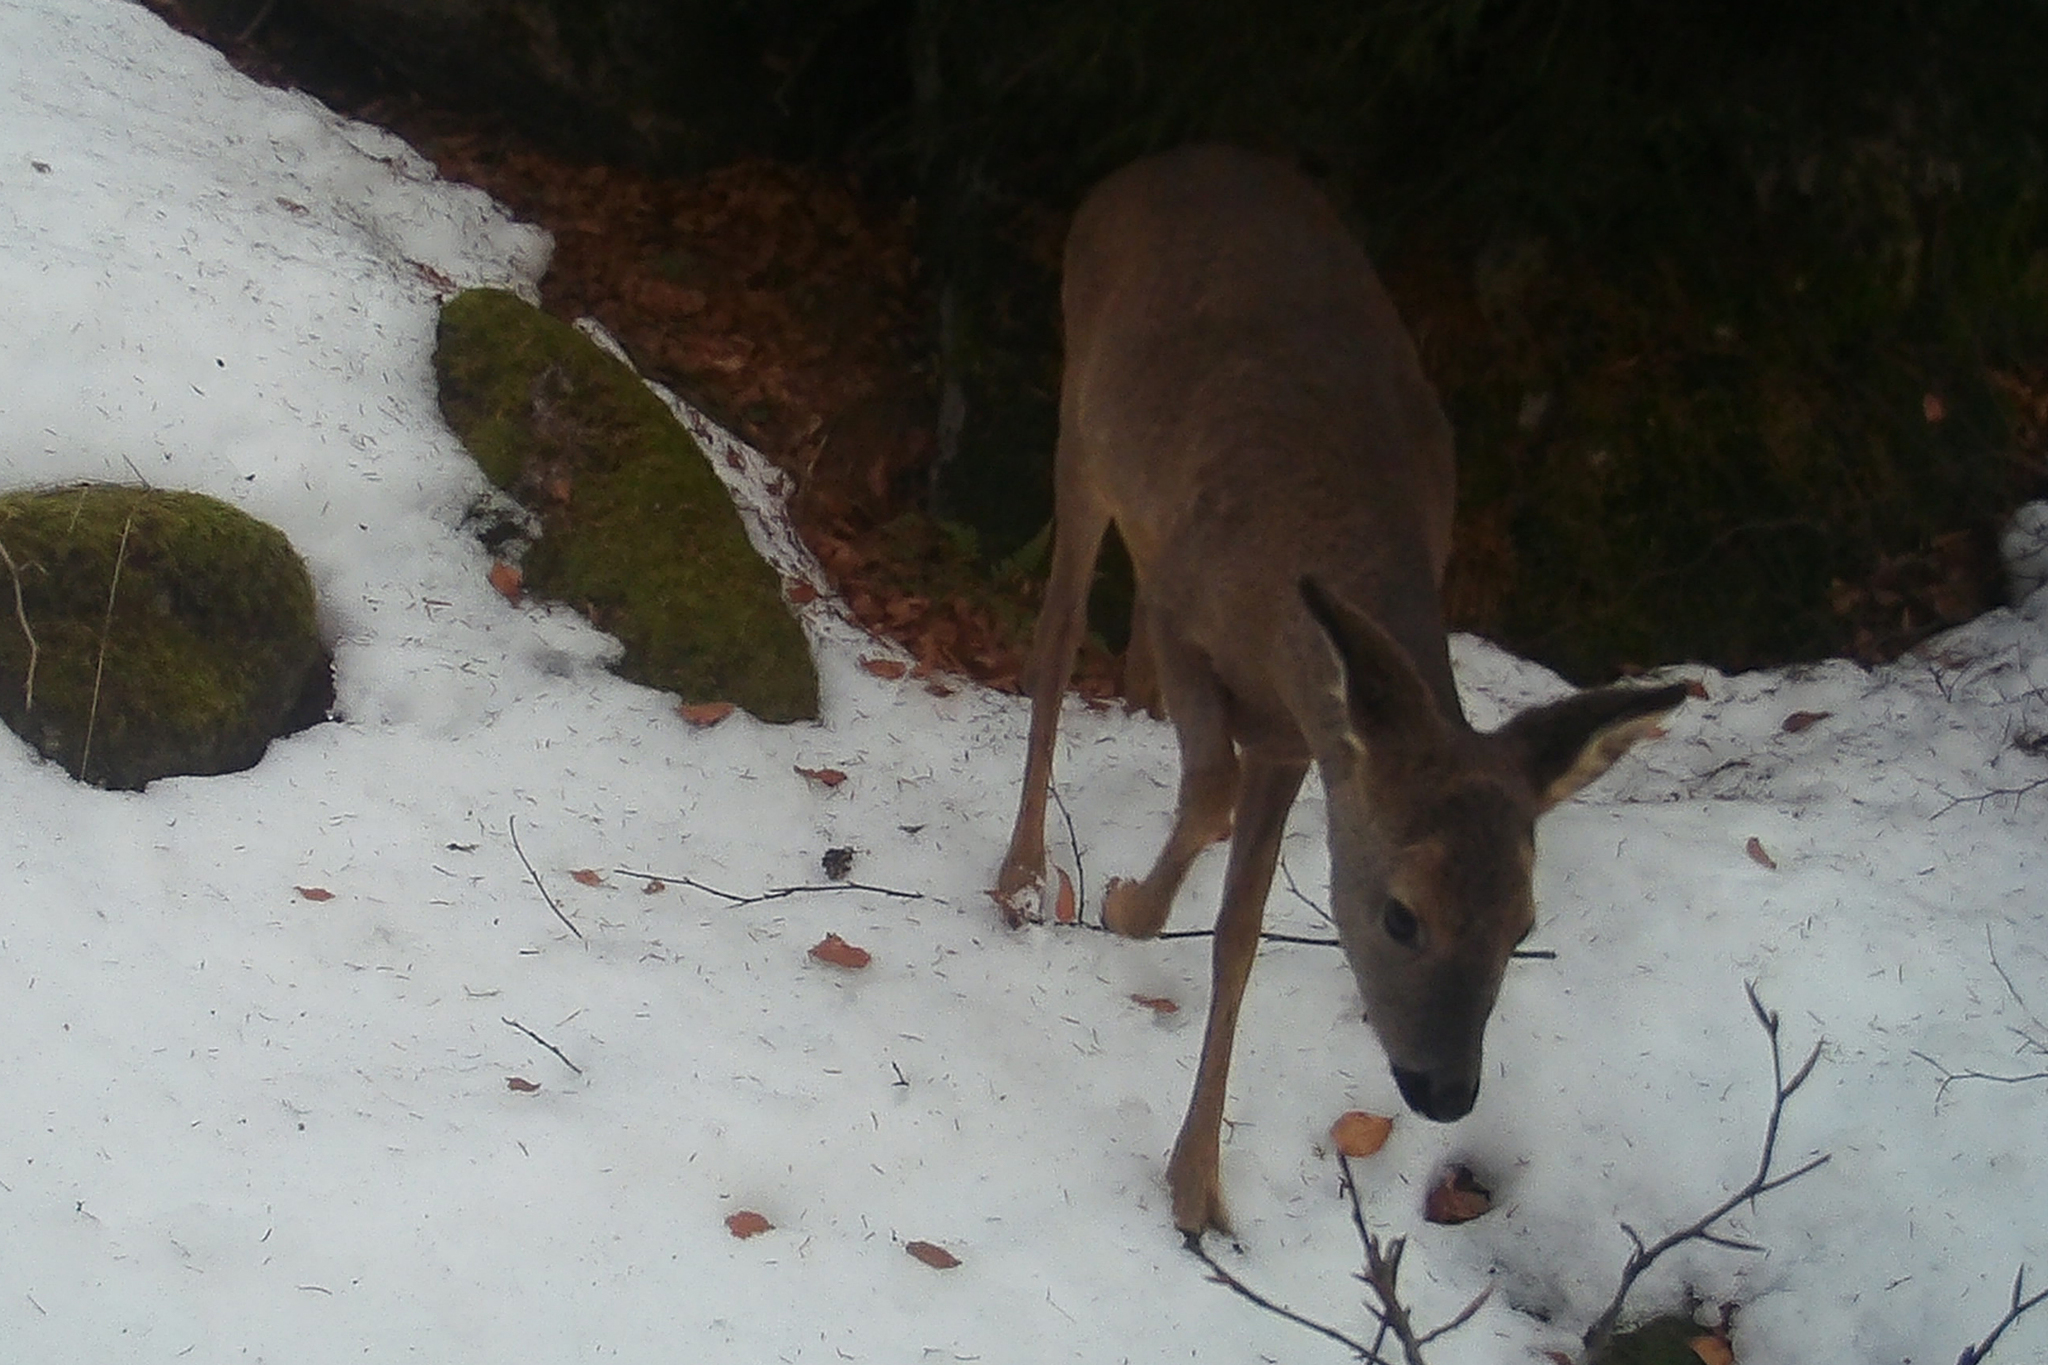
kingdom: Animalia
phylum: Chordata
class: Mammalia
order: Artiodactyla
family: Cervidae
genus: Capreolus
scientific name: Capreolus capreolus
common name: Western roe deer
